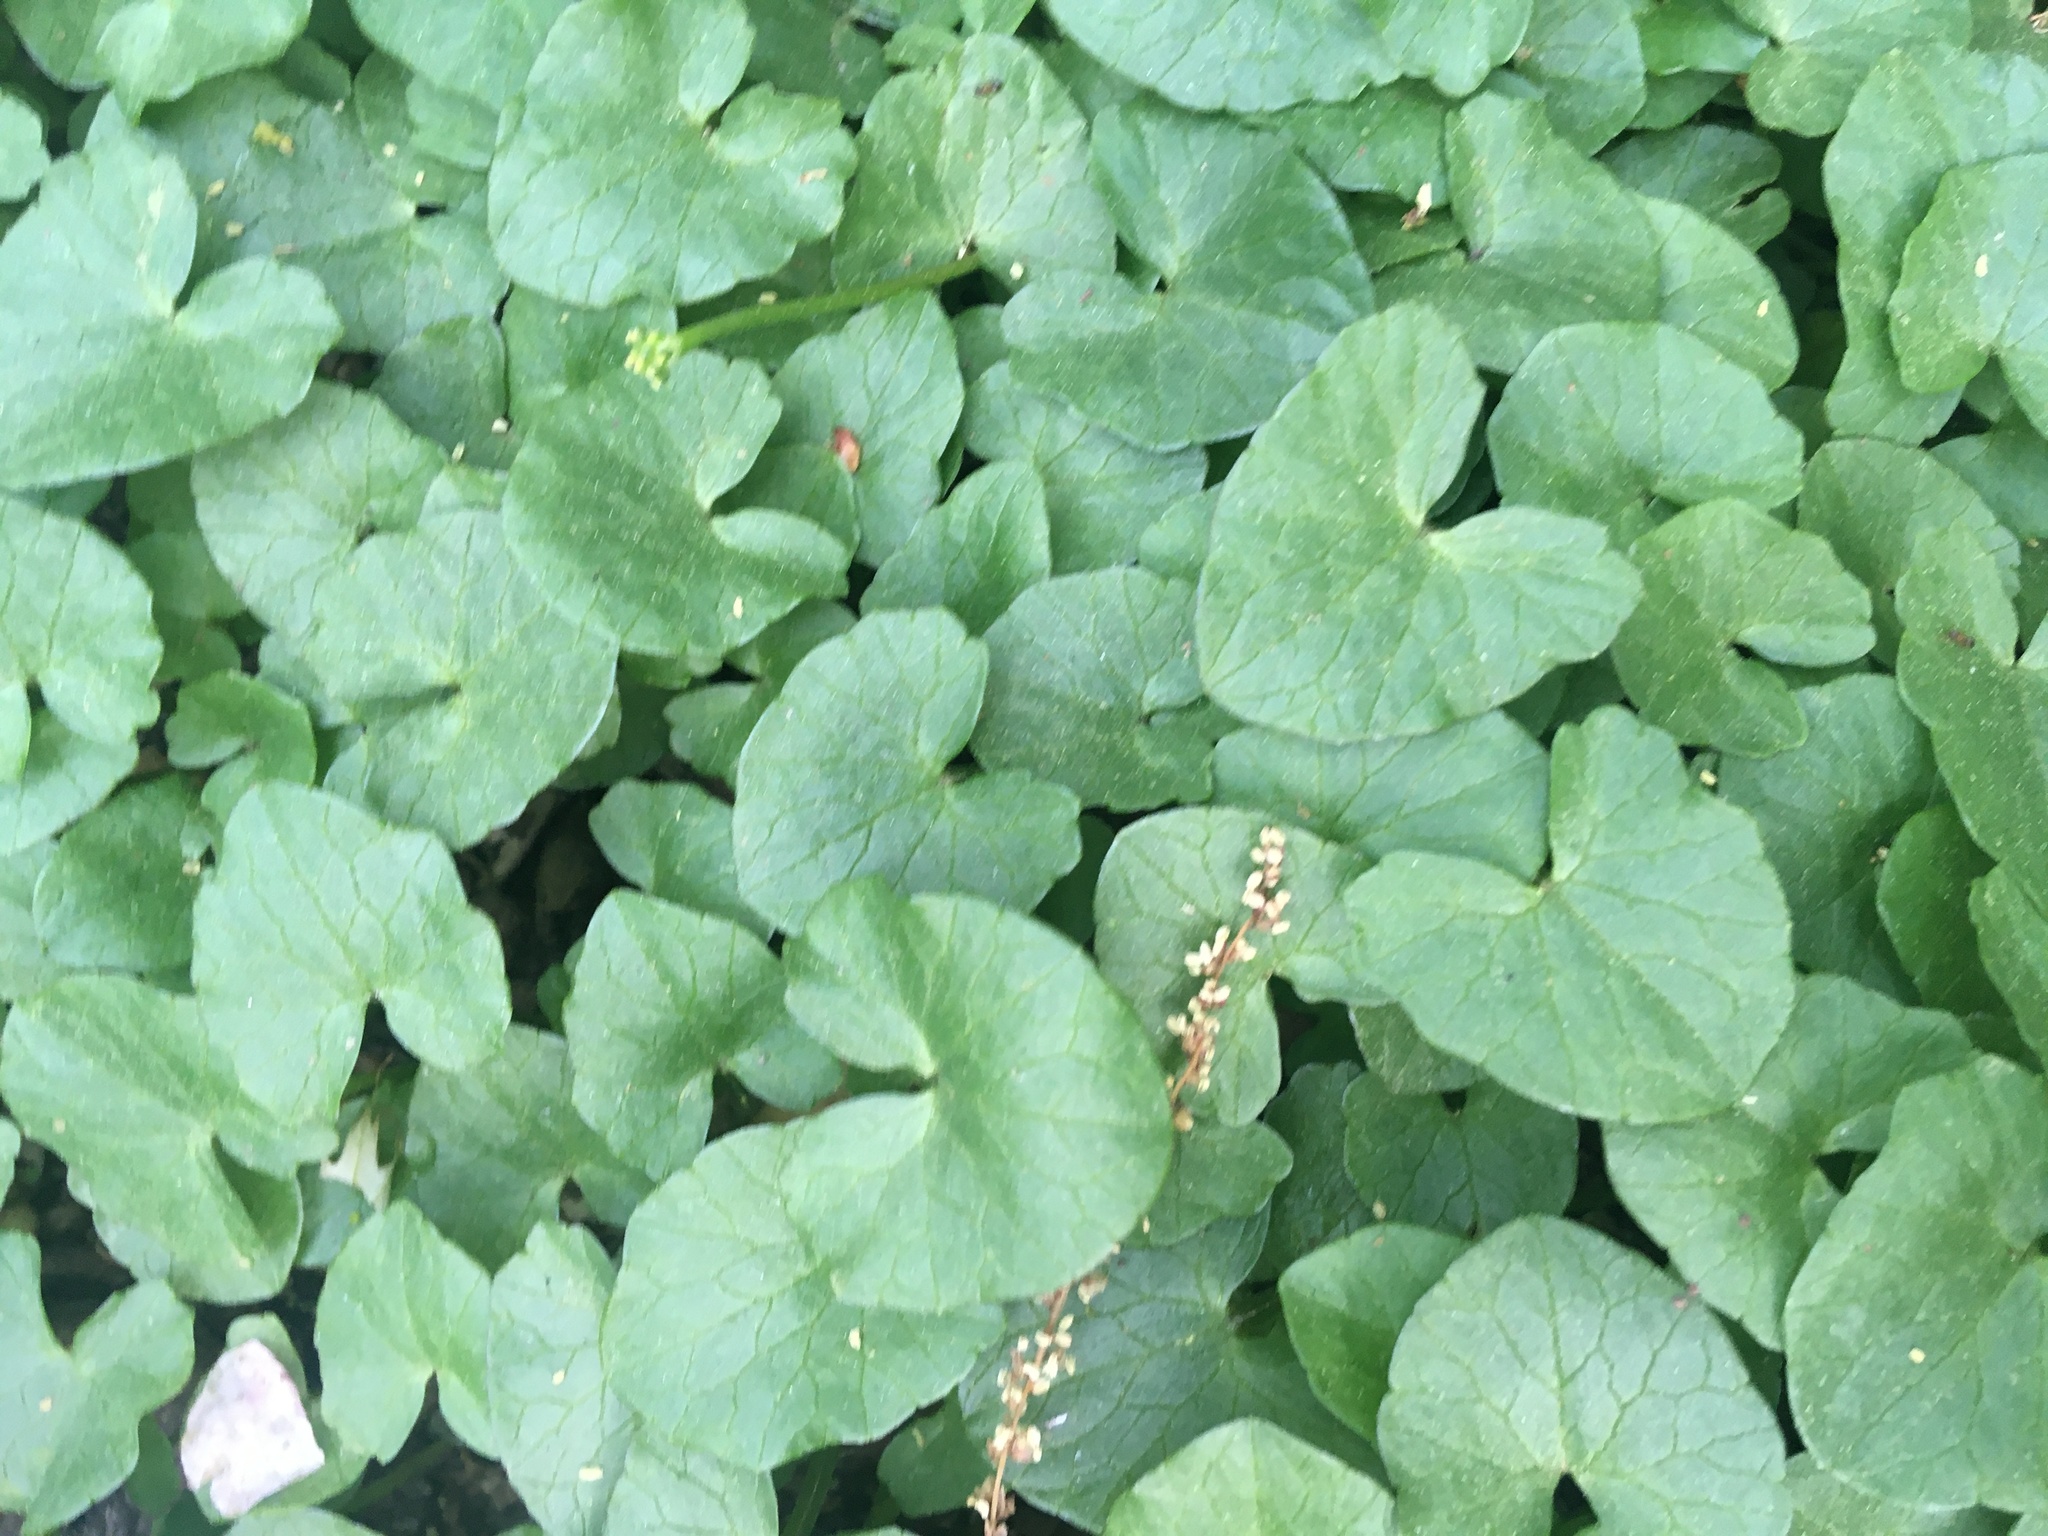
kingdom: Plantae
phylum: Tracheophyta
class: Magnoliopsida
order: Ranunculales
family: Ranunculaceae
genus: Ficaria
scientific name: Ficaria verna
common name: Lesser celandine
